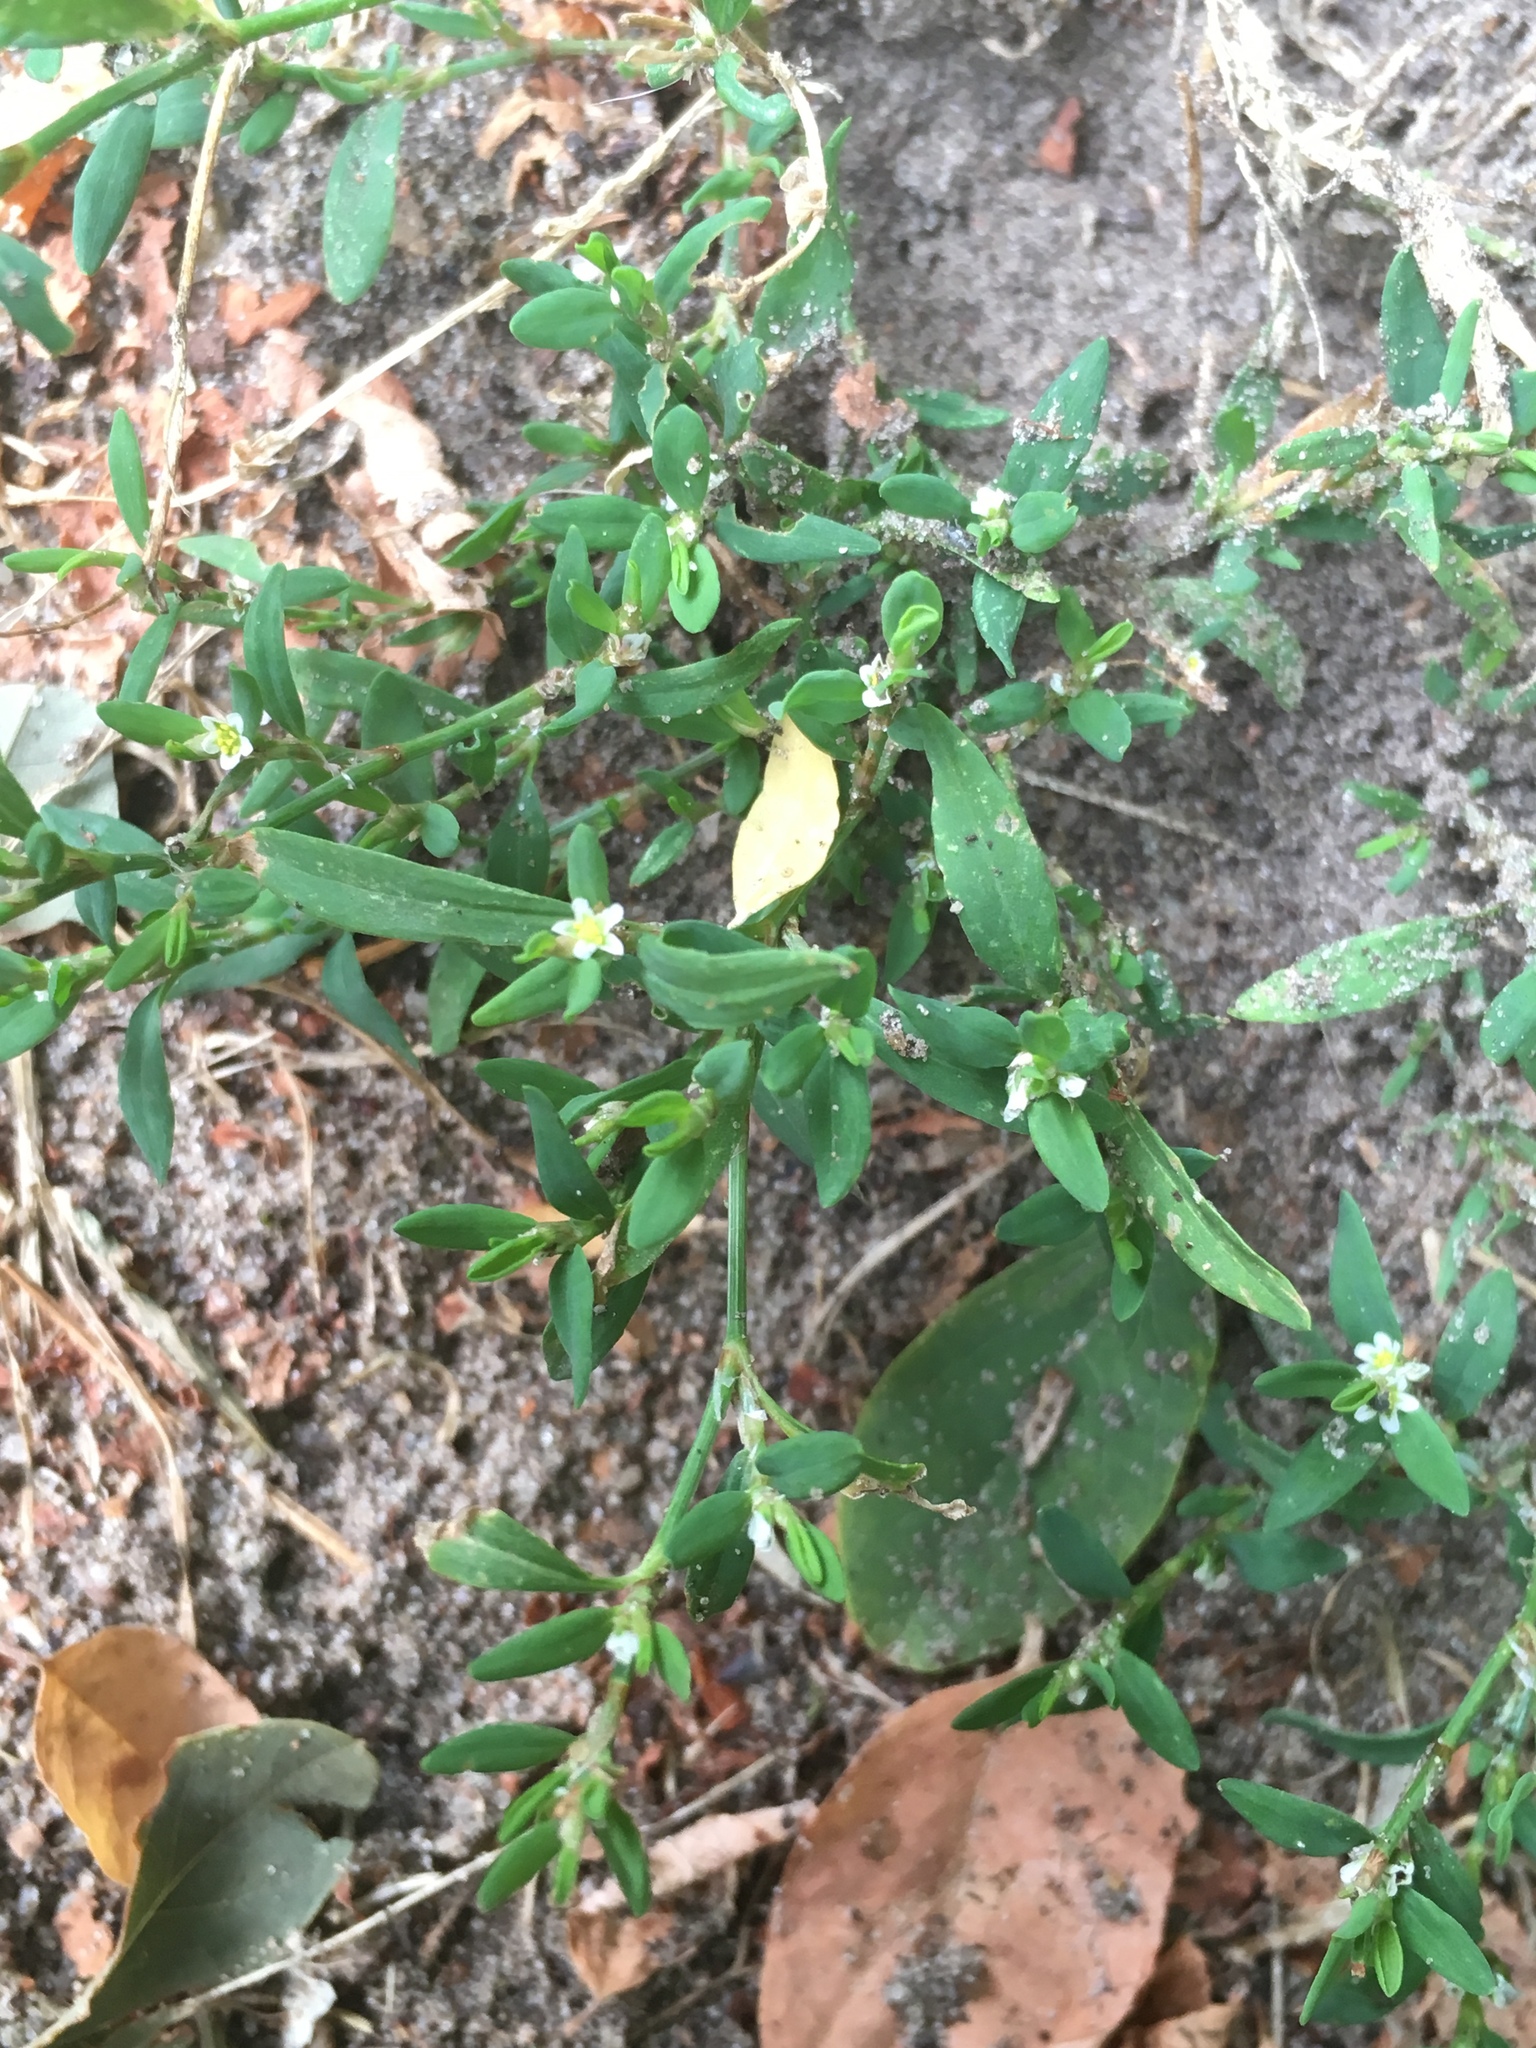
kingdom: Plantae
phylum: Tracheophyta
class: Magnoliopsida
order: Caryophyllales
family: Polygonaceae
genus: Polygonum
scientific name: Polygonum aviculare
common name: Prostrate knotweed
